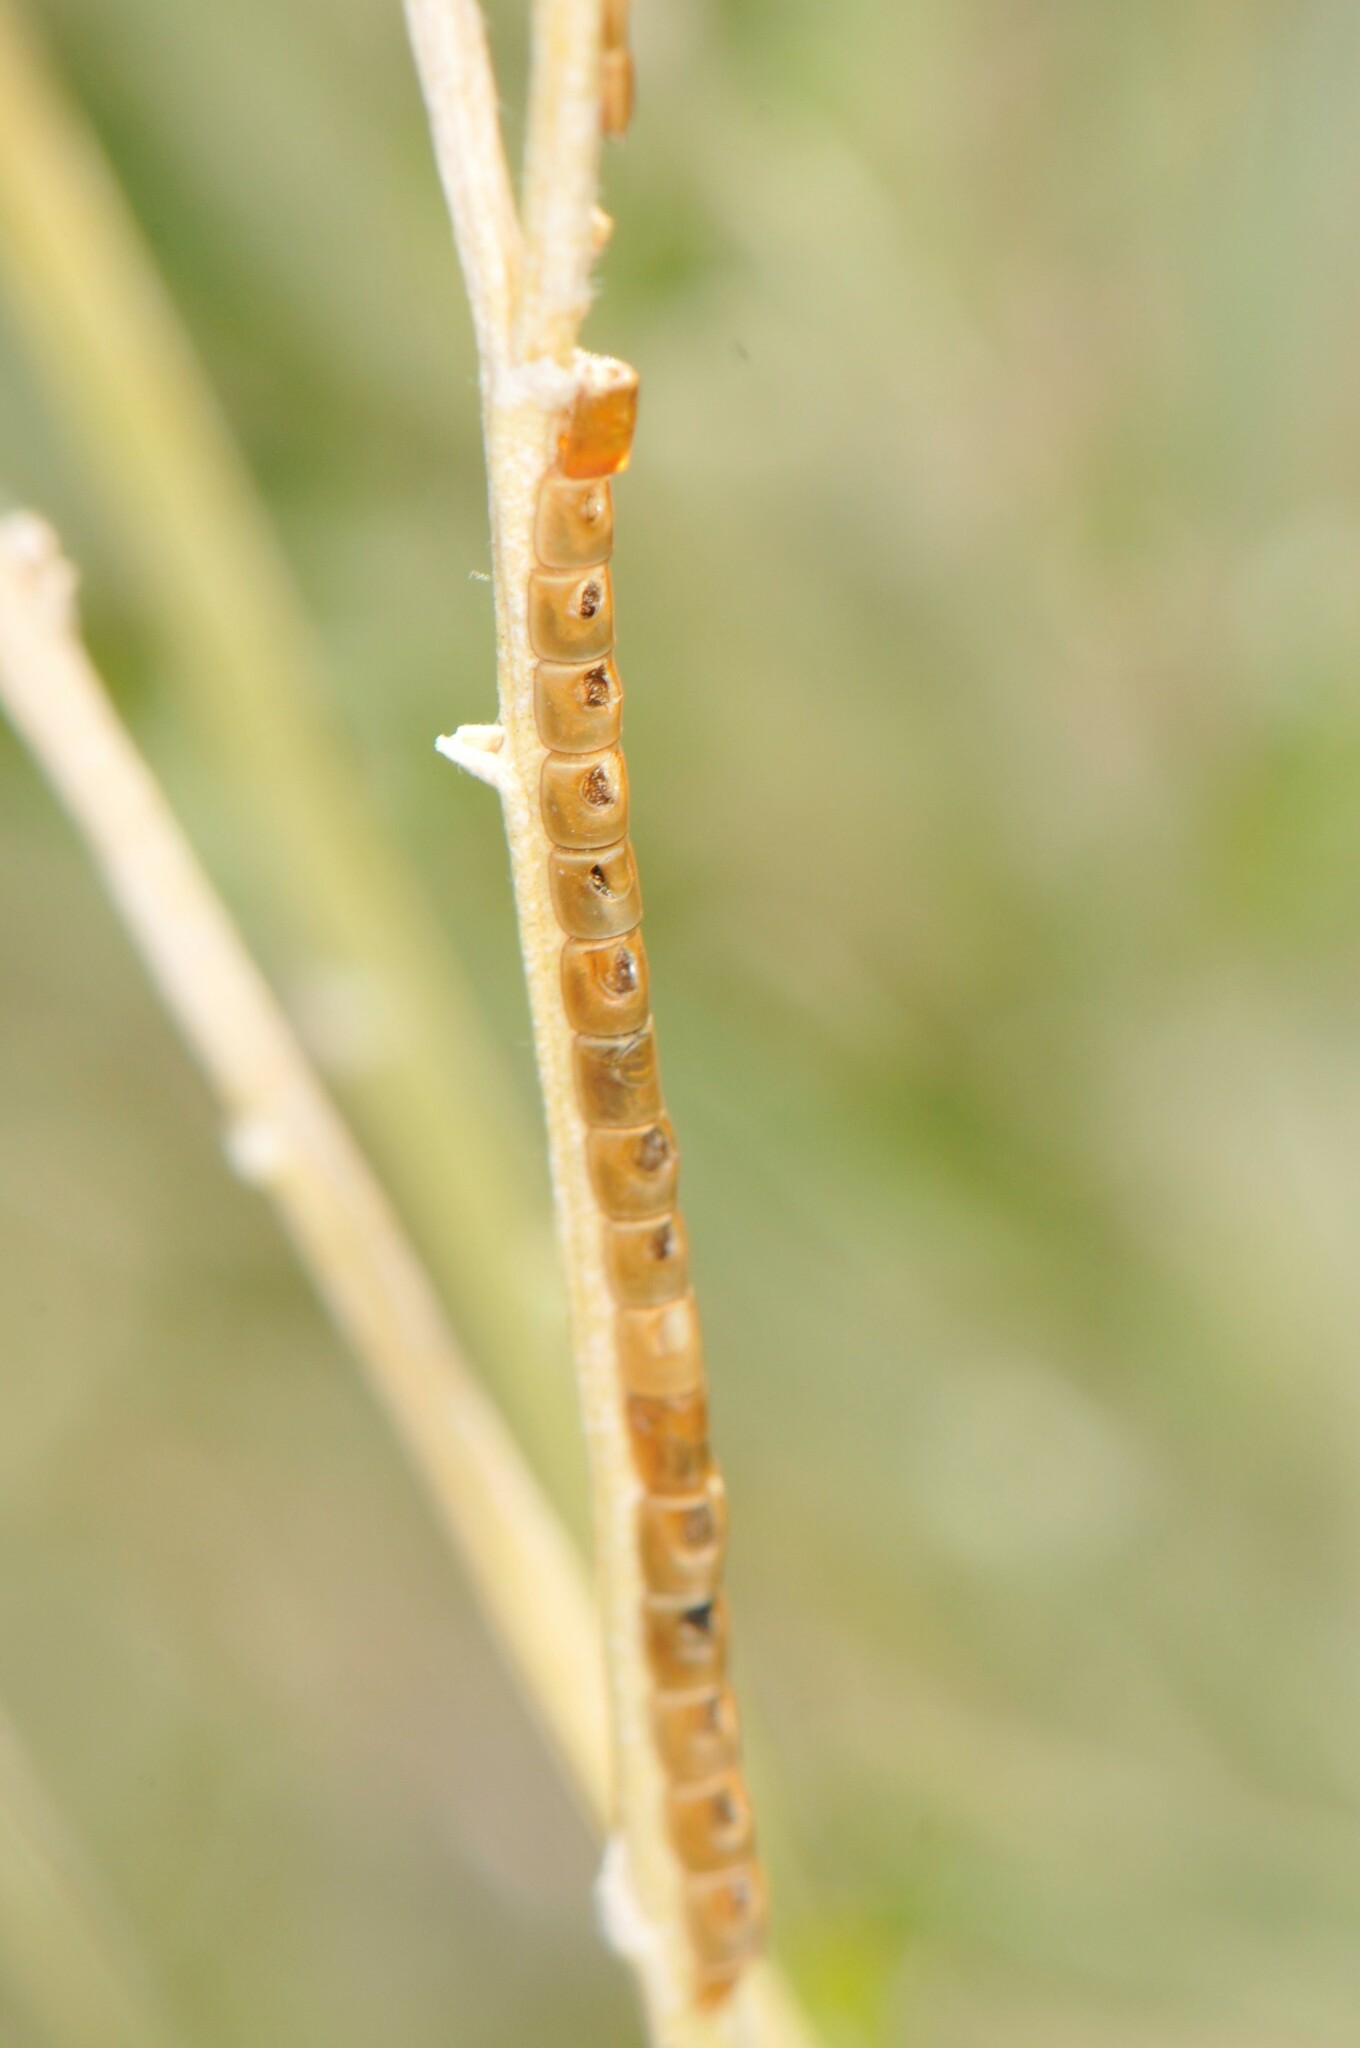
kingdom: Animalia
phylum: Arthropoda
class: Insecta
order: Hemiptera
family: Coreidae
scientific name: Coreidae
